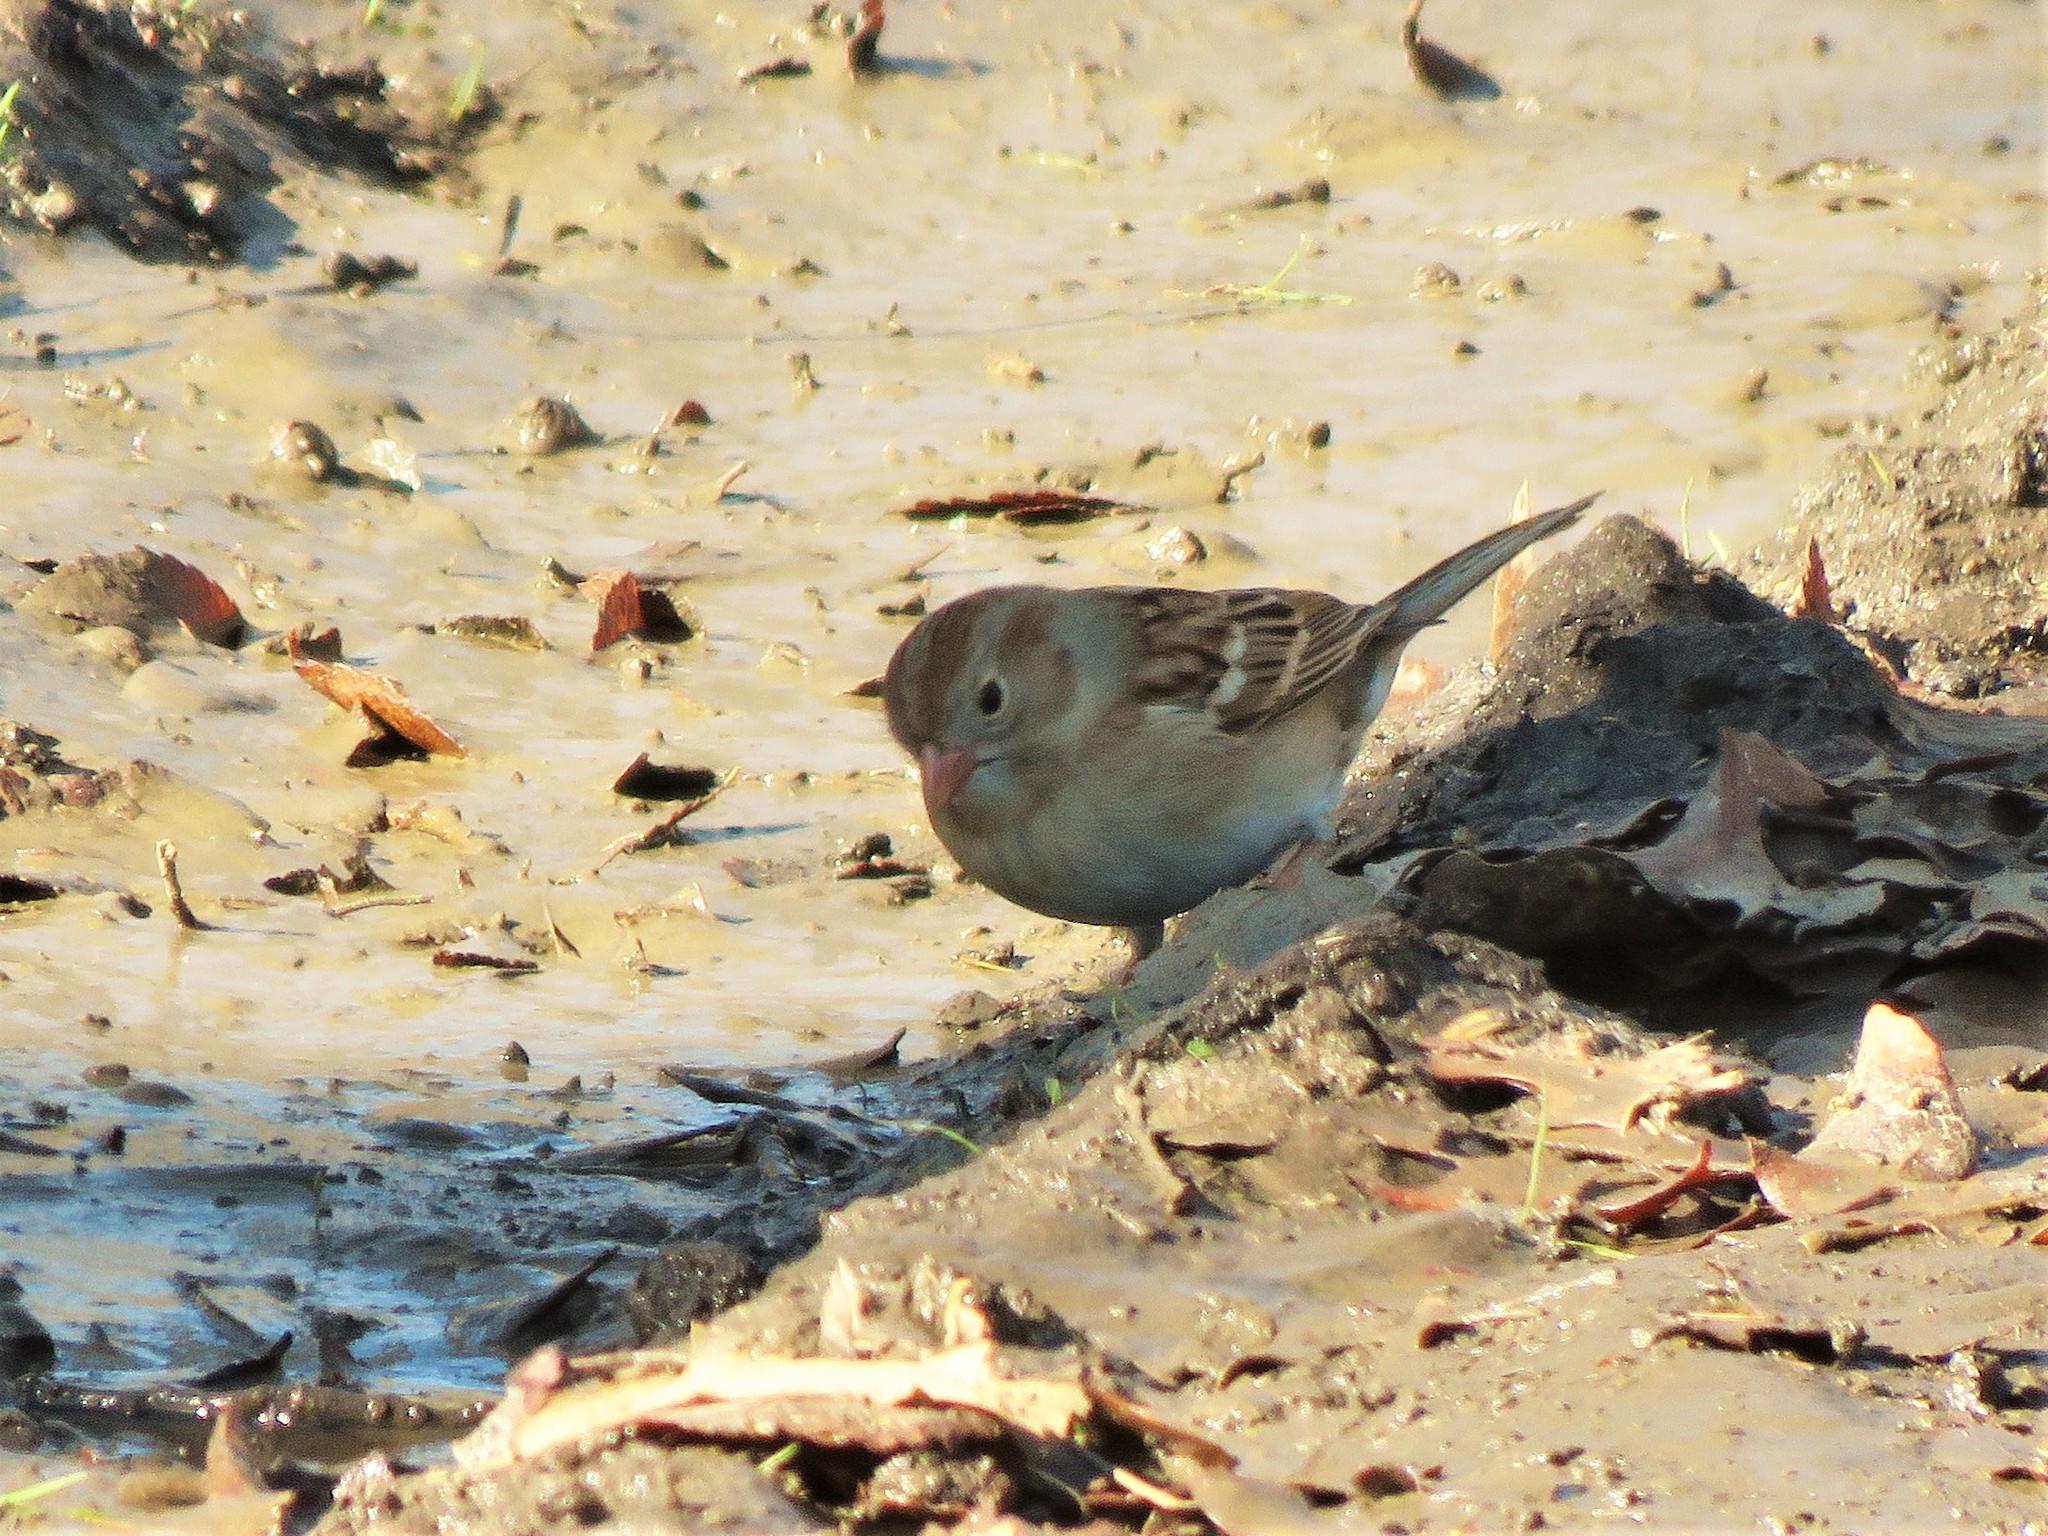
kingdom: Animalia
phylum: Chordata
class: Aves
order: Passeriformes
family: Passerellidae
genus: Spizella
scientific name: Spizella pusilla
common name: Field sparrow
